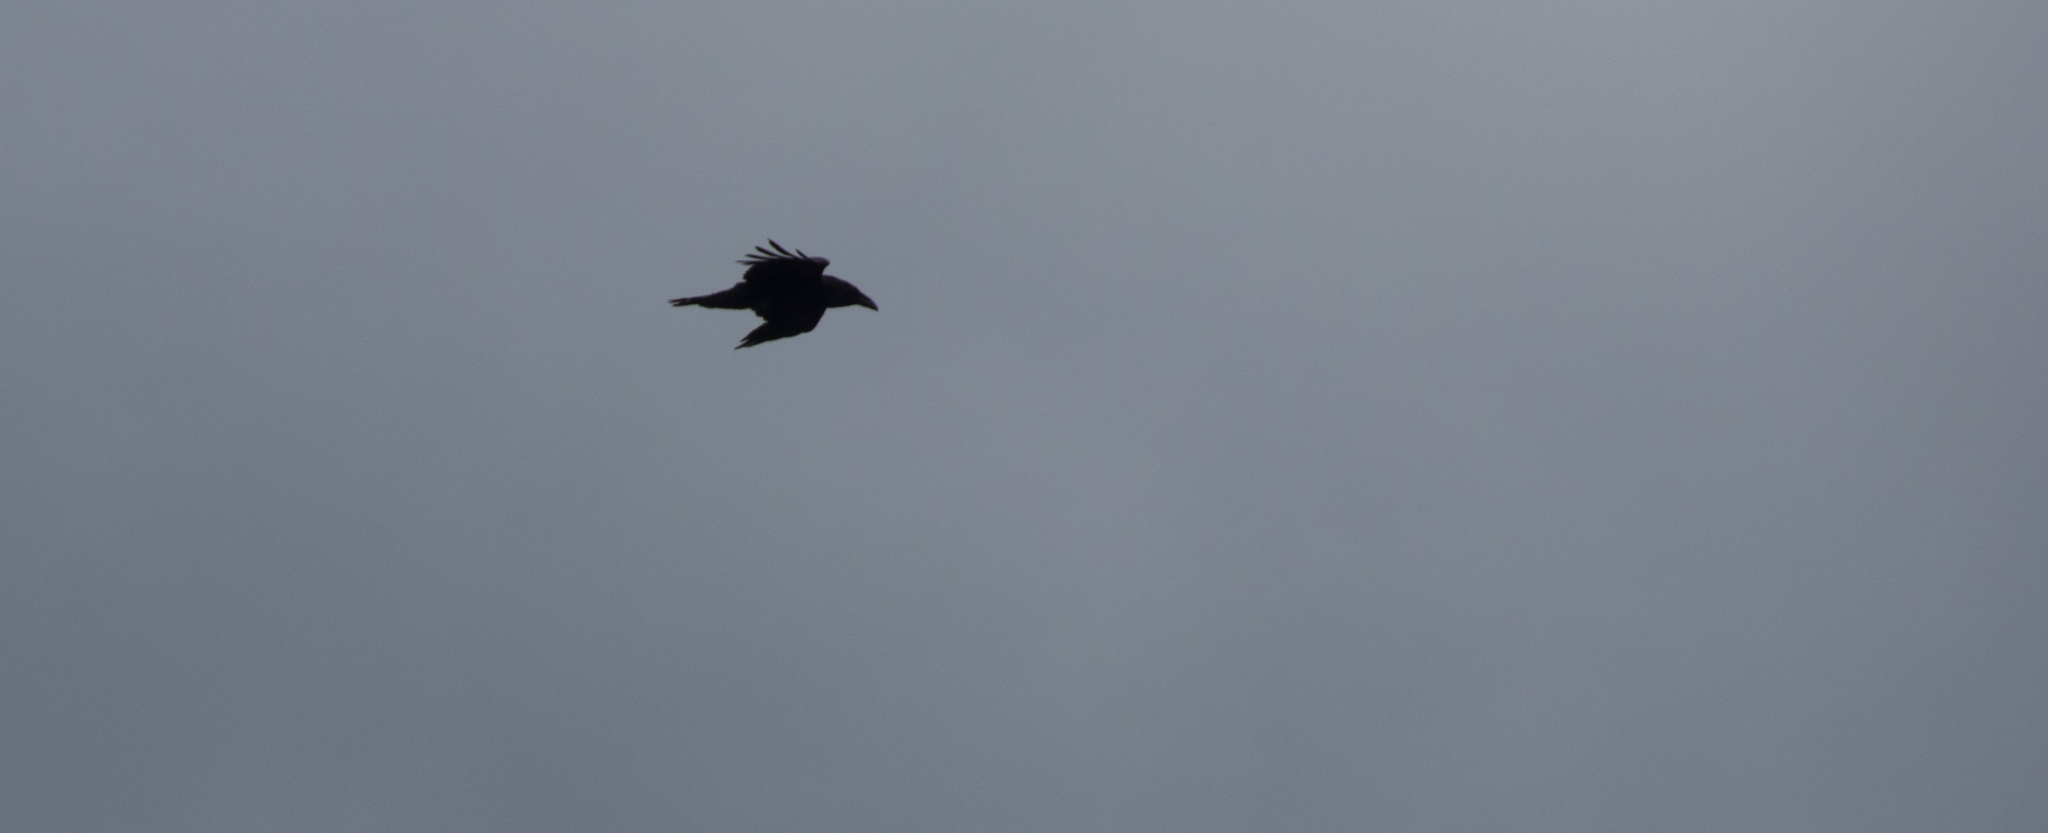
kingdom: Animalia
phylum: Chordata
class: Aves
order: Passeriformes
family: Corvidae
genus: Corvus
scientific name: Corvus corax
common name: Common raven
